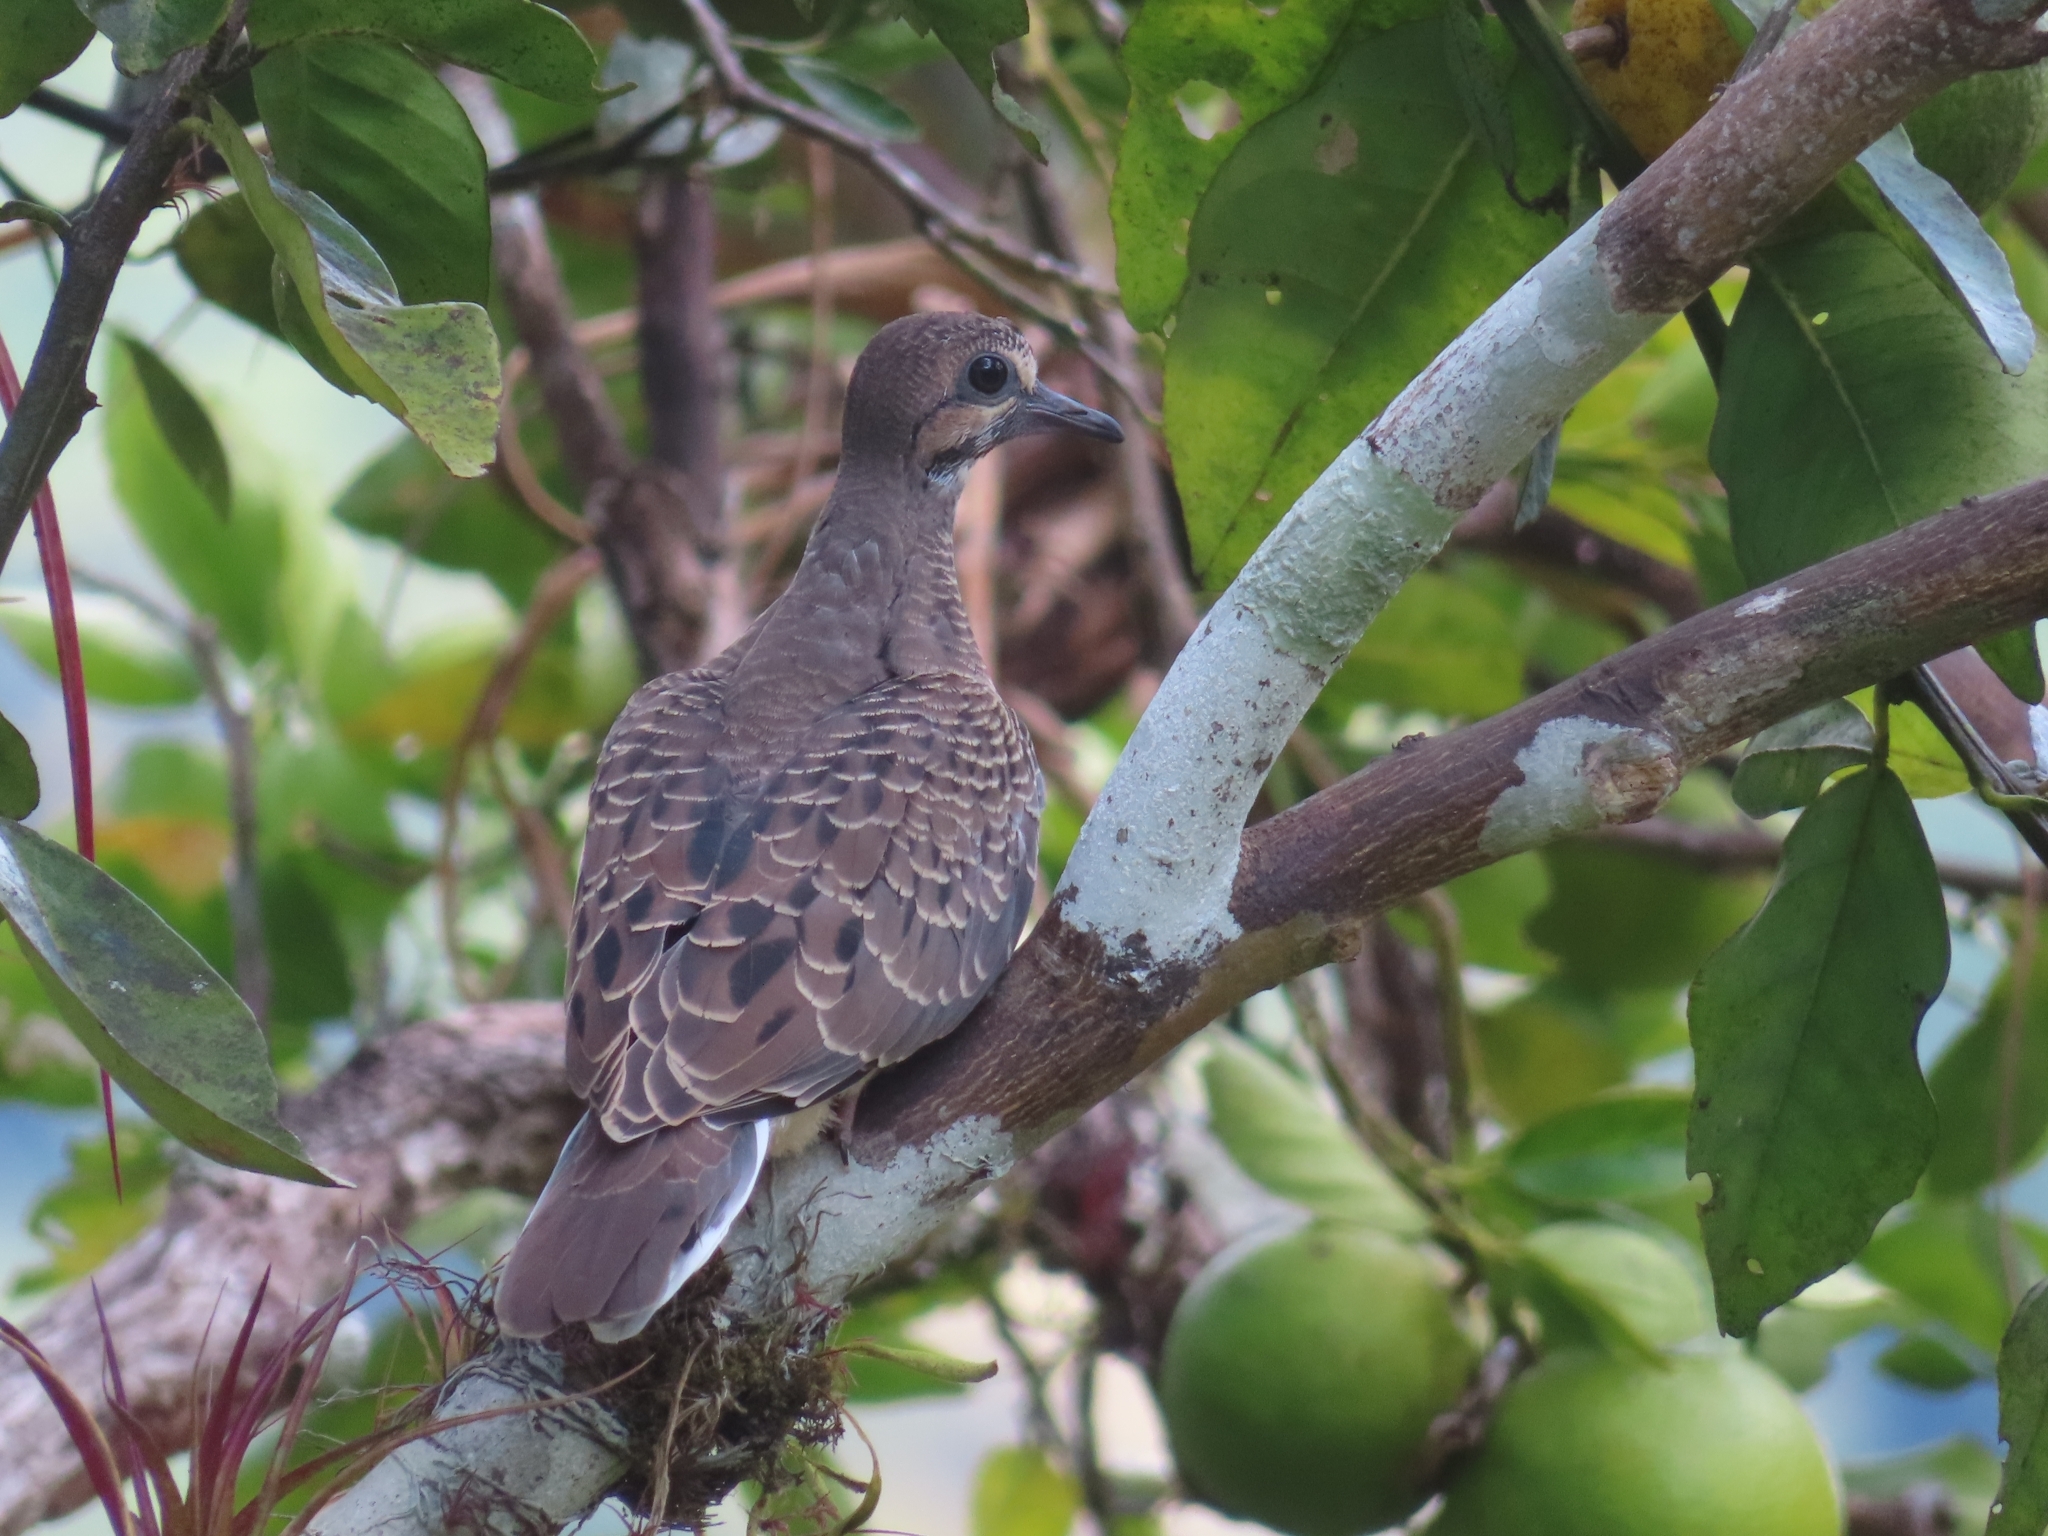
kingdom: Animalia
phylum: Chordata
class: Aves
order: Columbiformes
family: Columbidae
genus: Zenaida
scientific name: Zenaida aurita
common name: Zenaida dove
